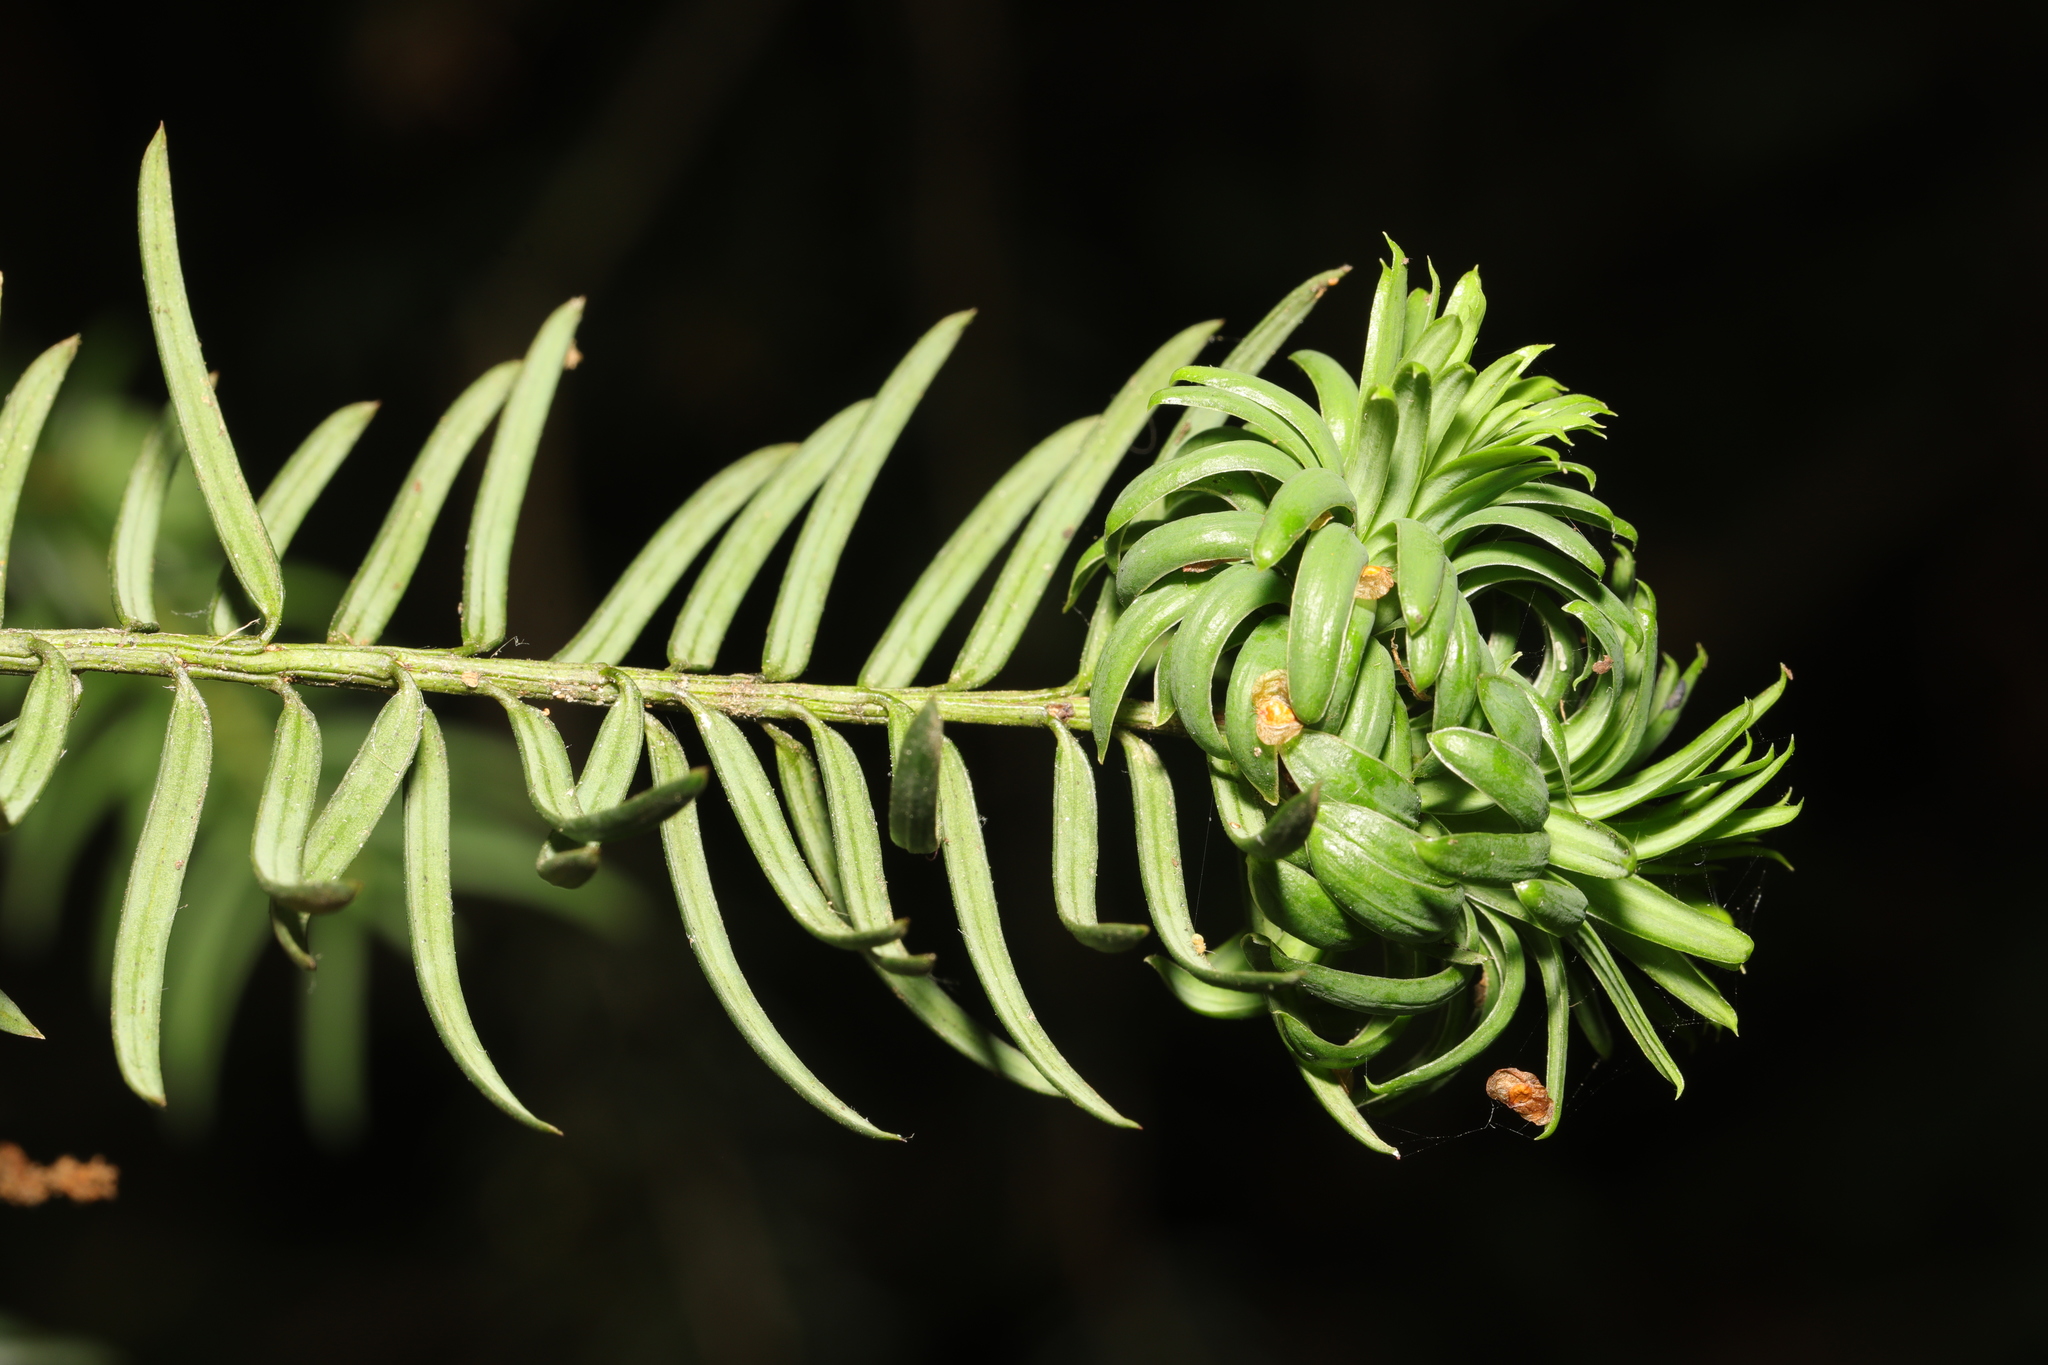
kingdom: Plantae
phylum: Tracheophyta
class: Pinopsida
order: Pinales
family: Taxaceae
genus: Taxus
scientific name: Taxus baccata
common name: Yew
